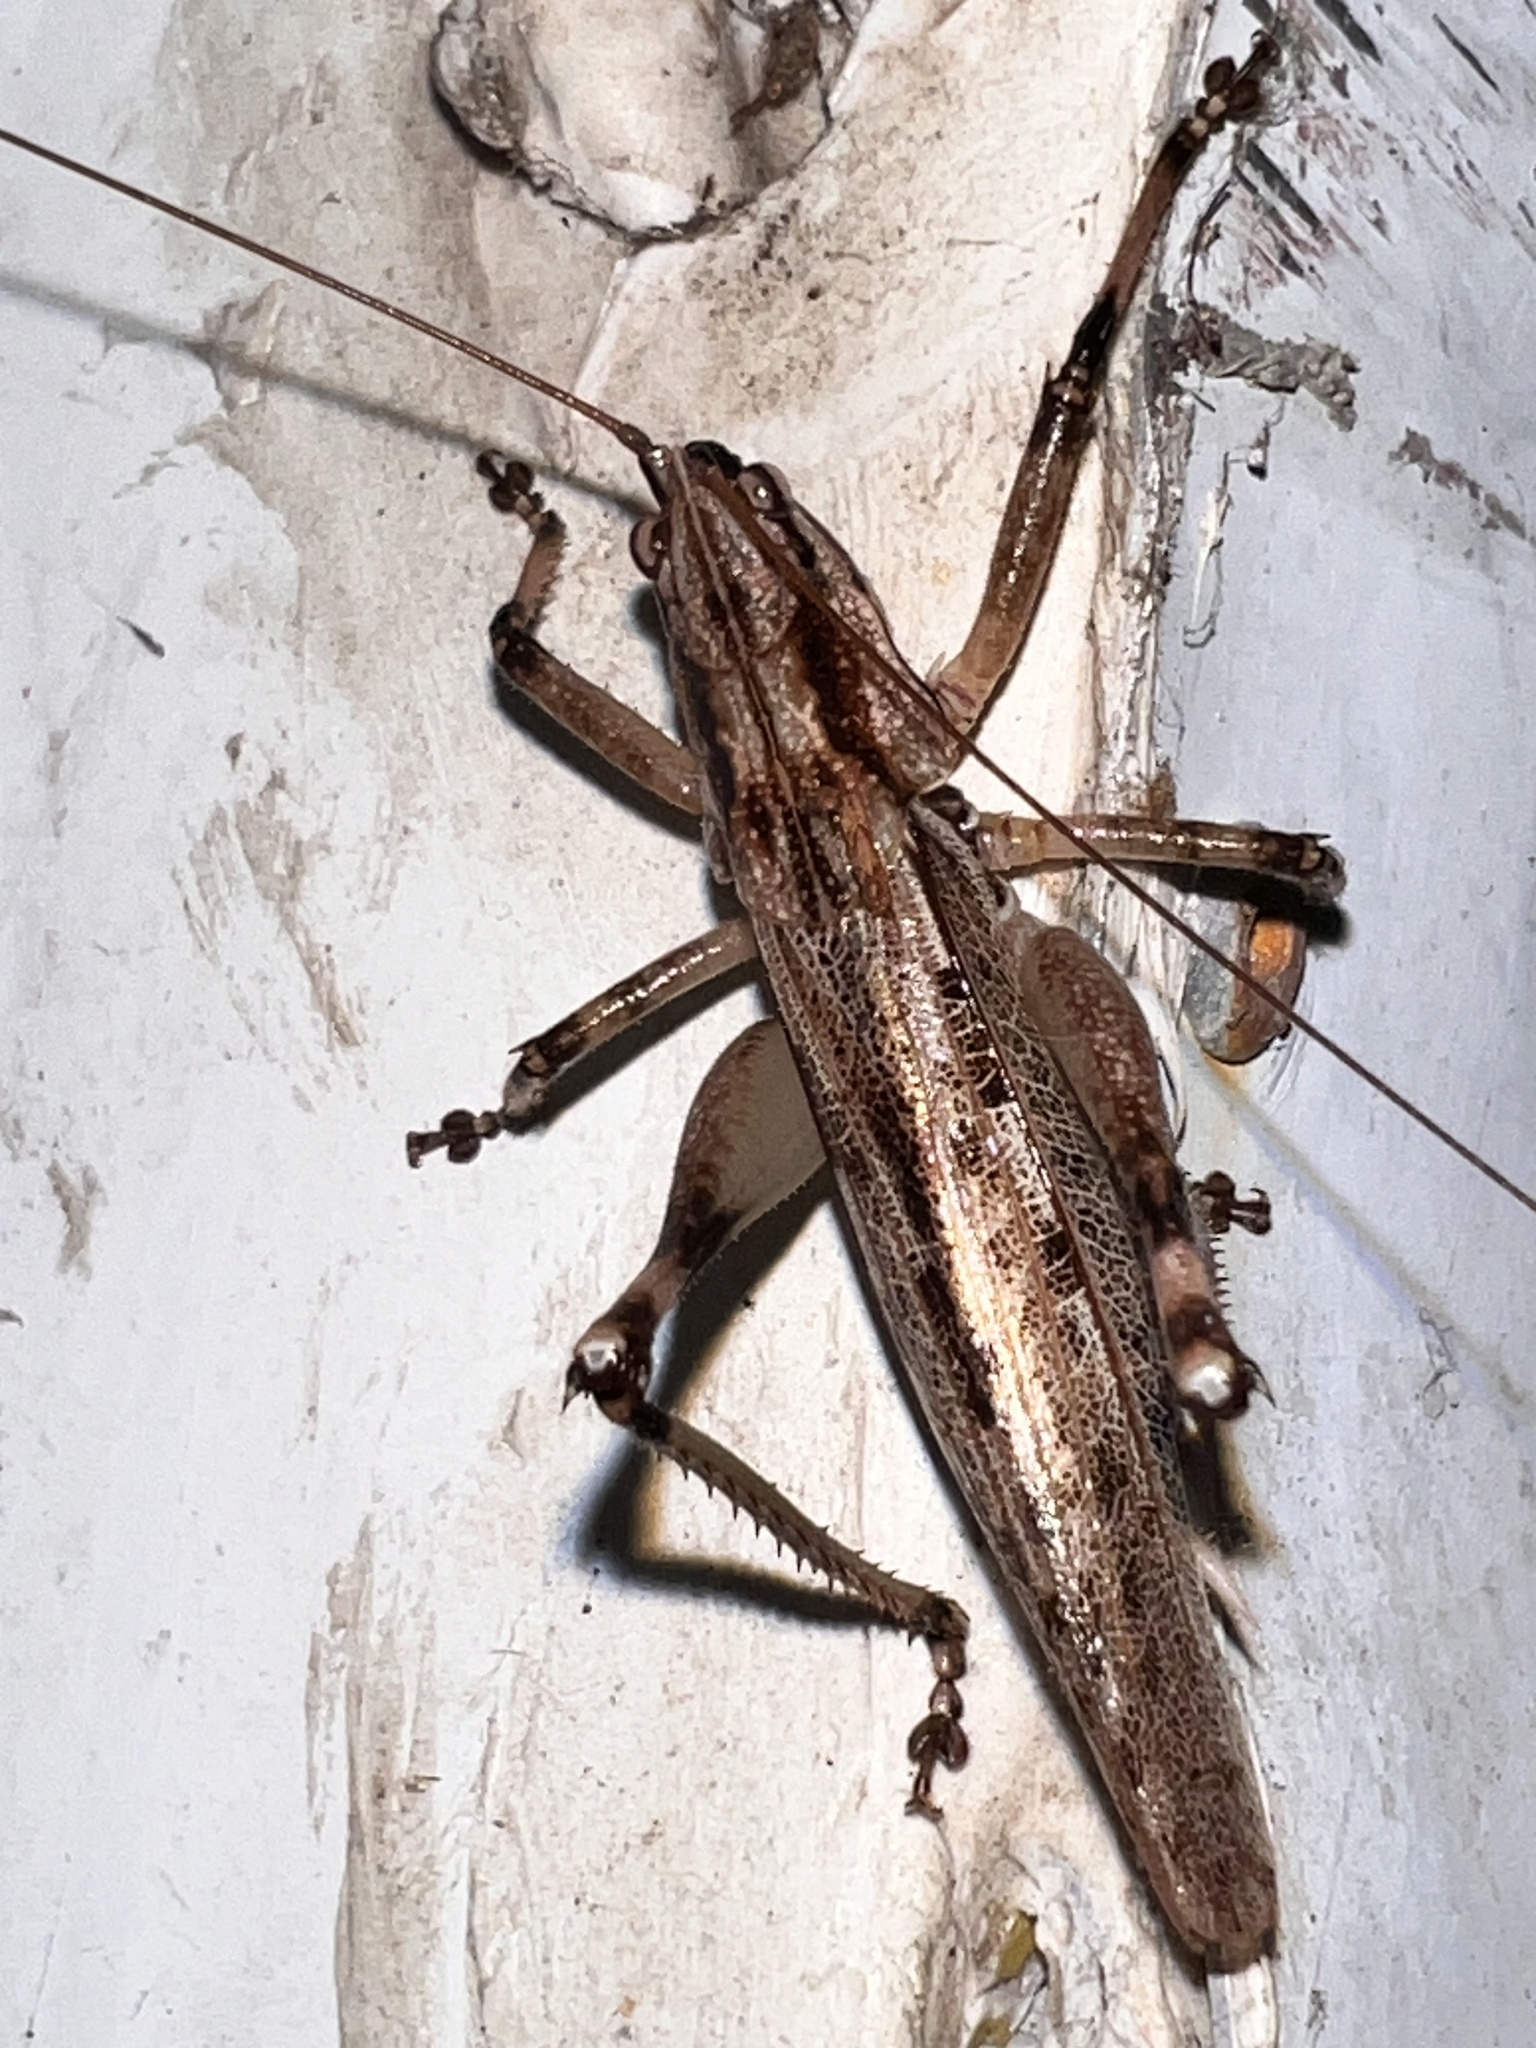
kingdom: Animalia
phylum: Arthropoda
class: Insecta
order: Orthoptera
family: Tettigoniidae
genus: Larifugagraecia
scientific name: Larifugagraecia cornuta
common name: Spine-headed nicsara
